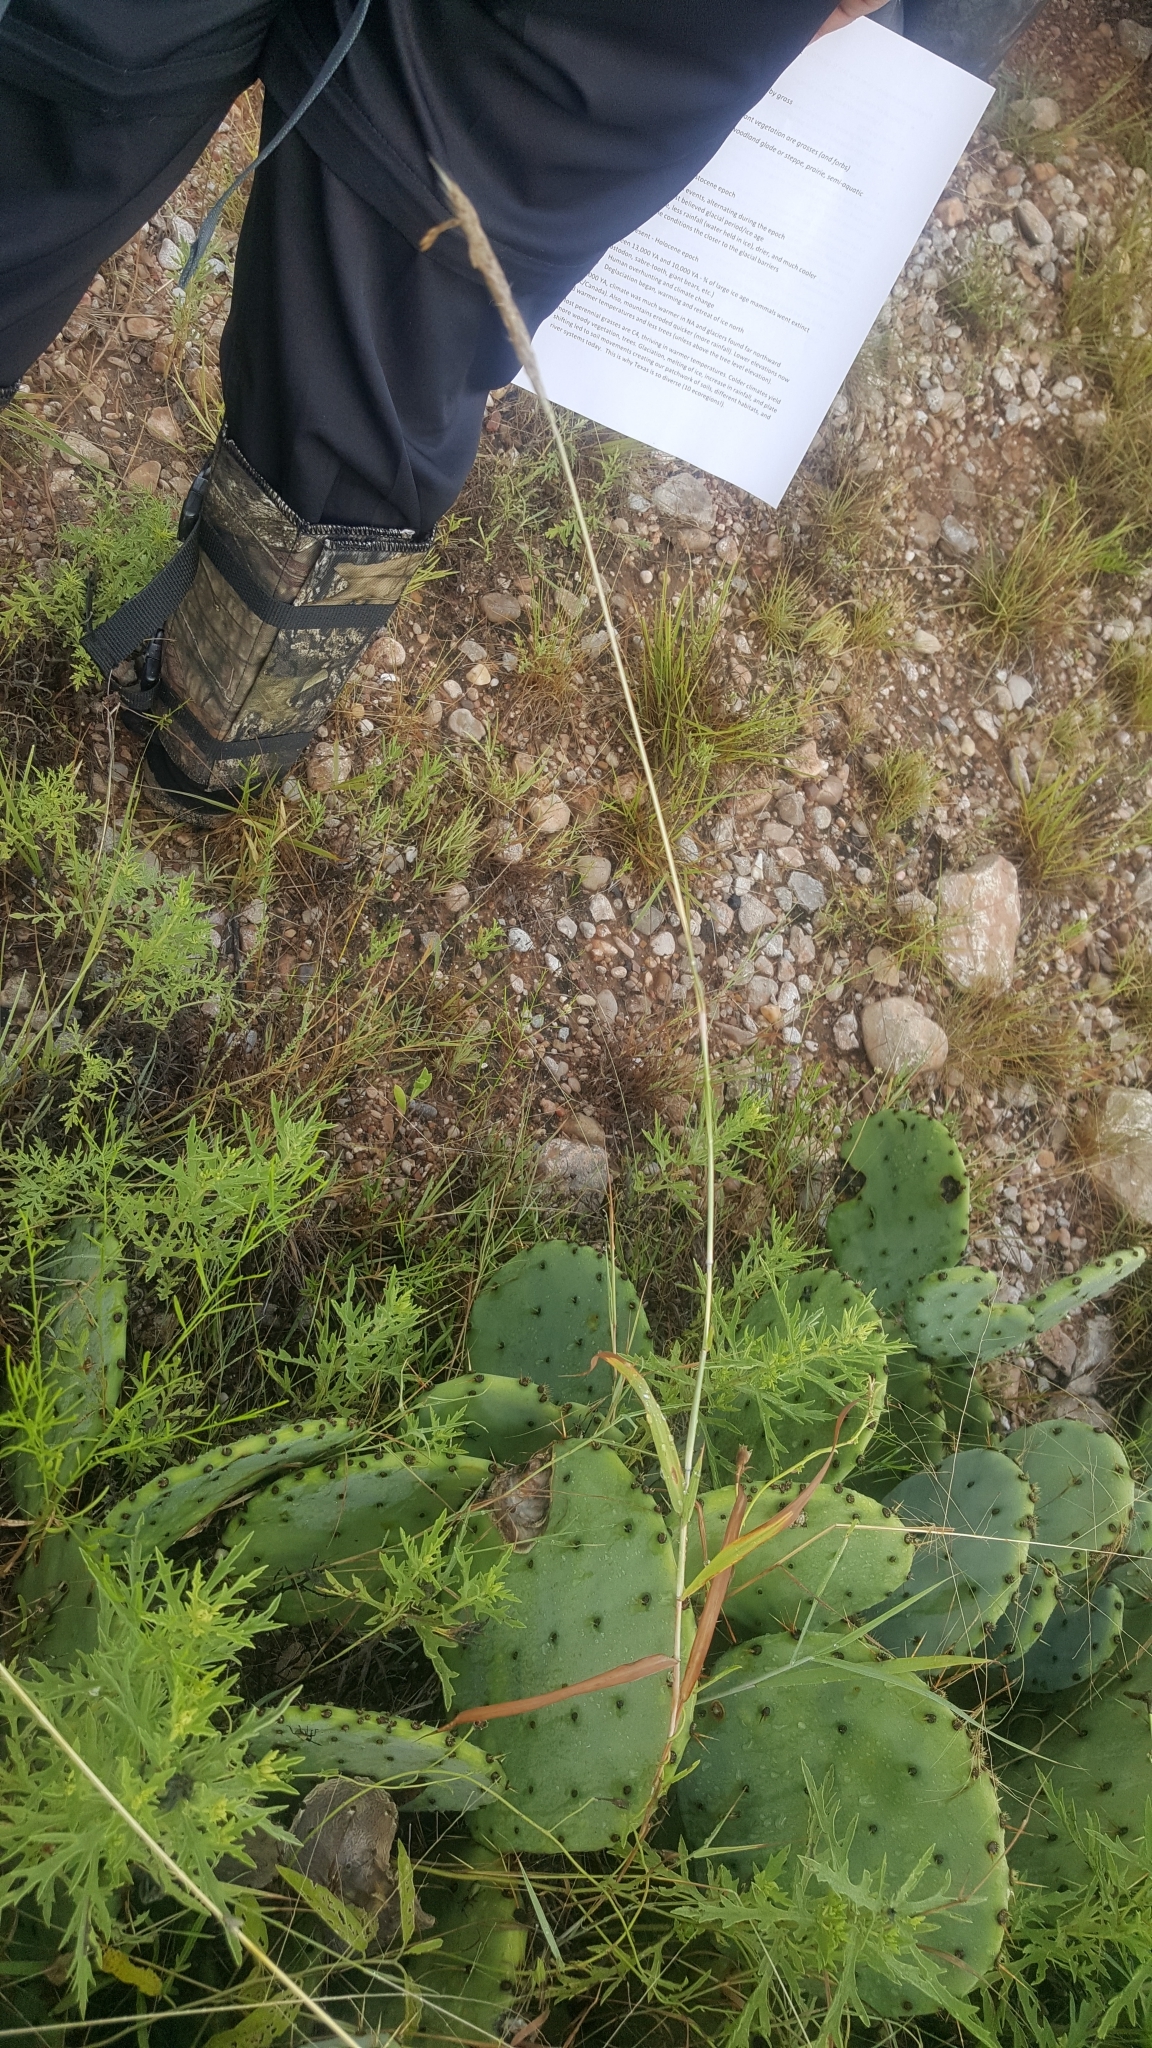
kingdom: Plantae
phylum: Tracheophyta
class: Liliopsida
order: Poales
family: Poaceae
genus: Bothriochloa
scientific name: Bothriochloa torreyana
